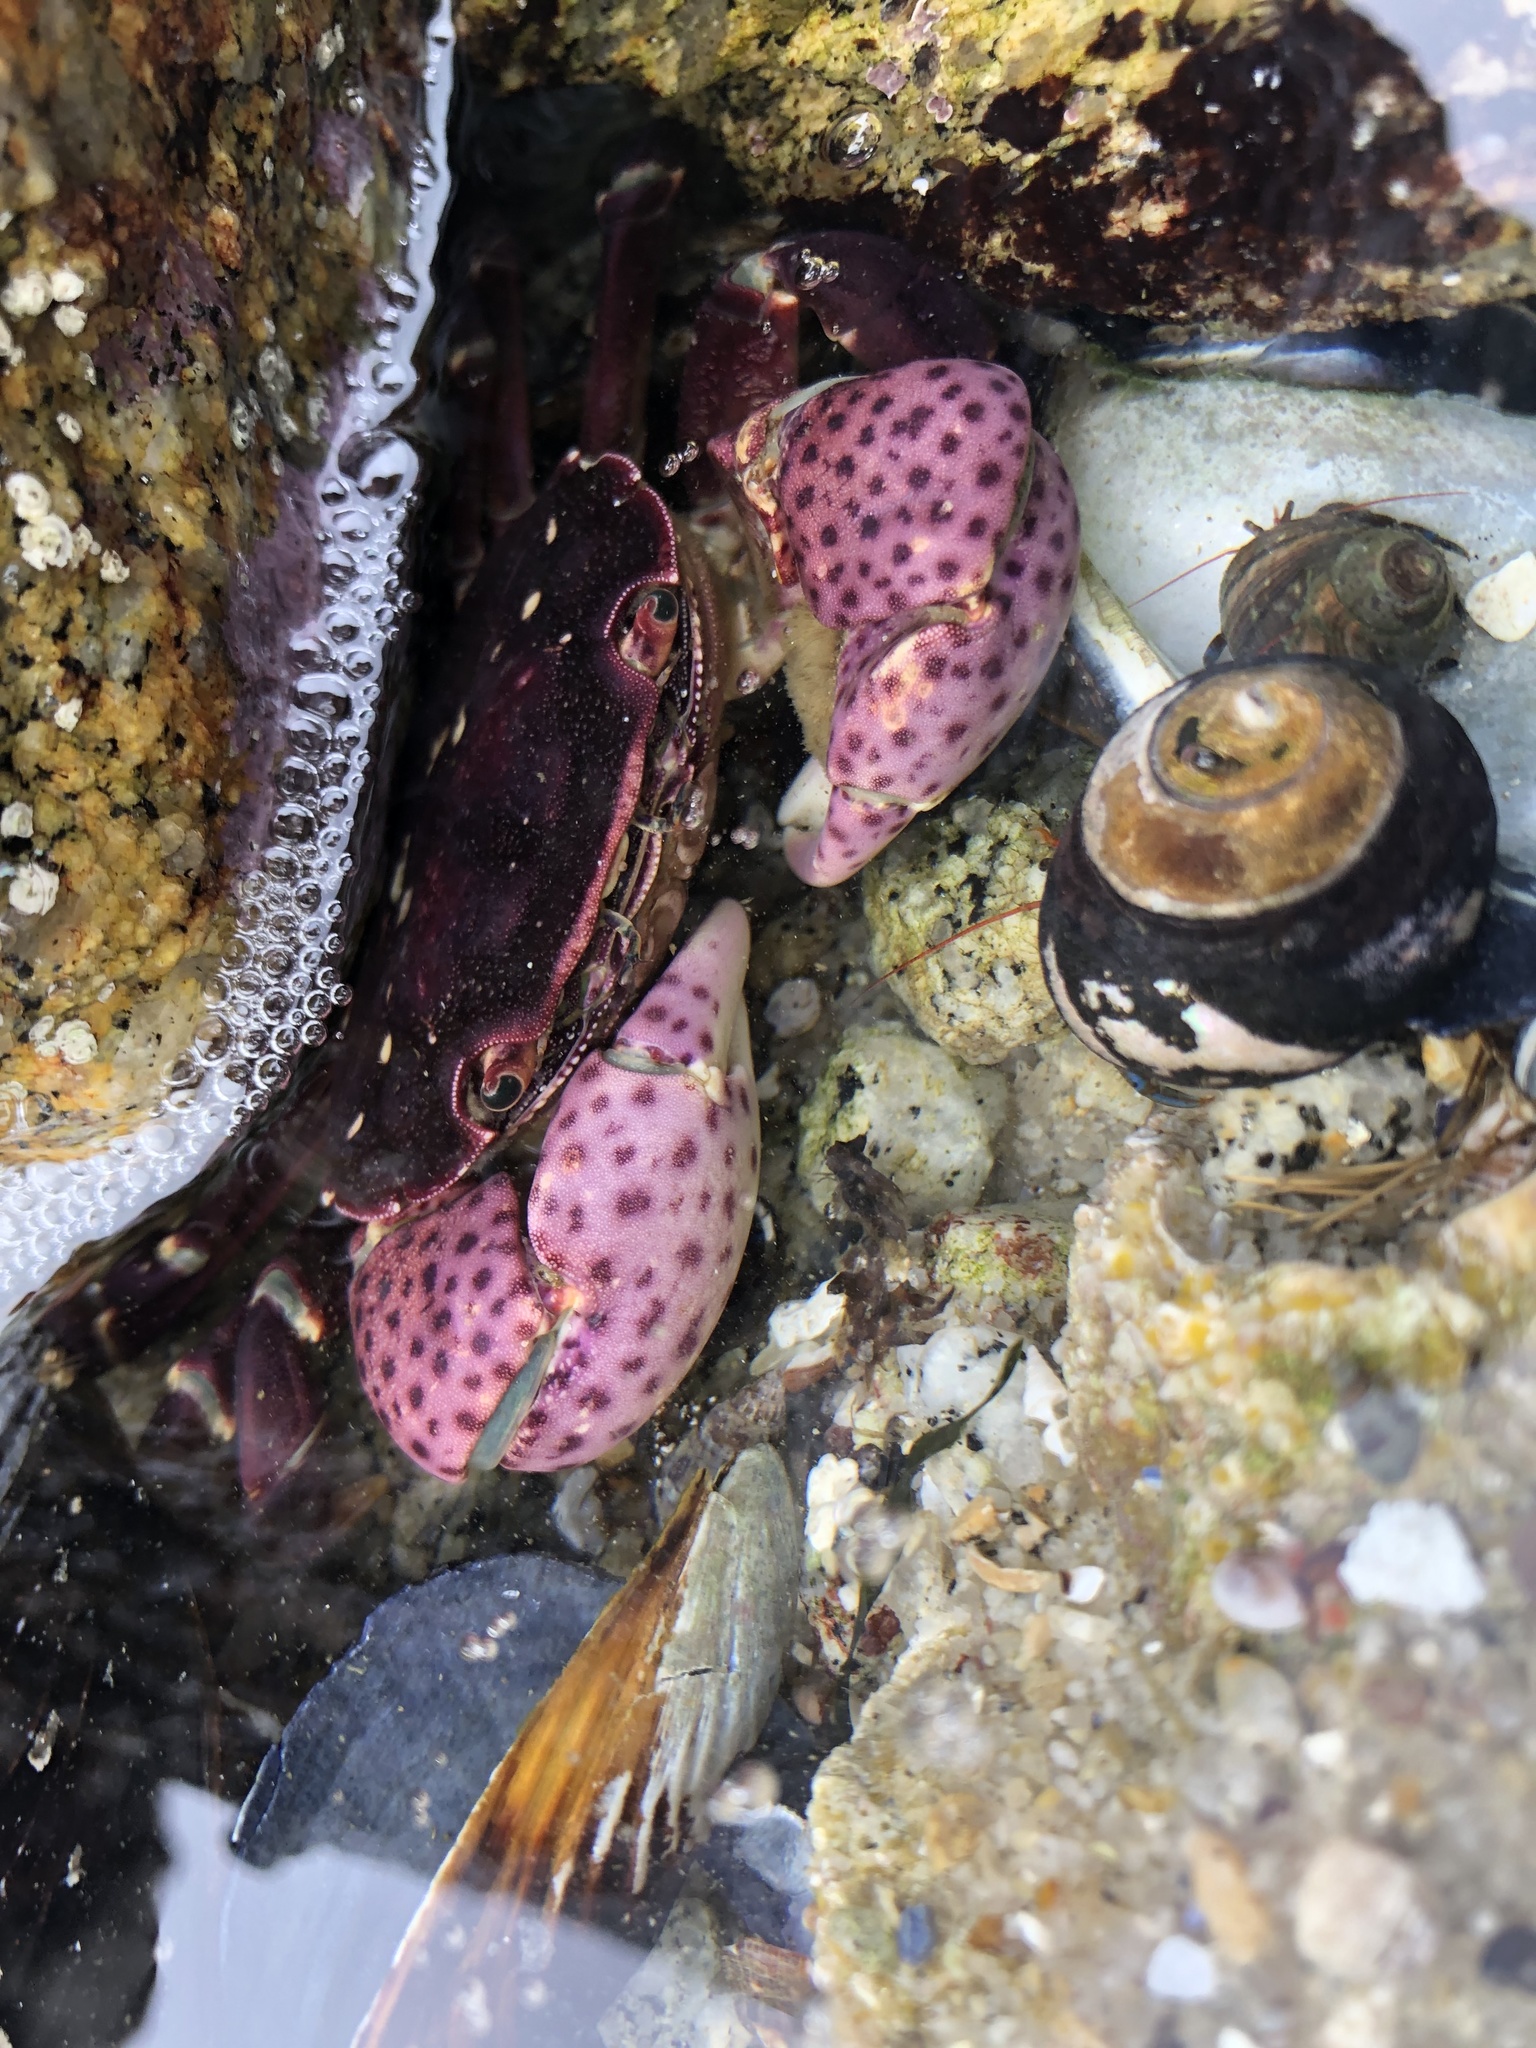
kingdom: Animalia
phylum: Arthropoda
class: Malacostraca
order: Decapoda
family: Varunidae
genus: Hemigrapsus
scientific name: Hemigrapsus nudus
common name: Purple shore crab
